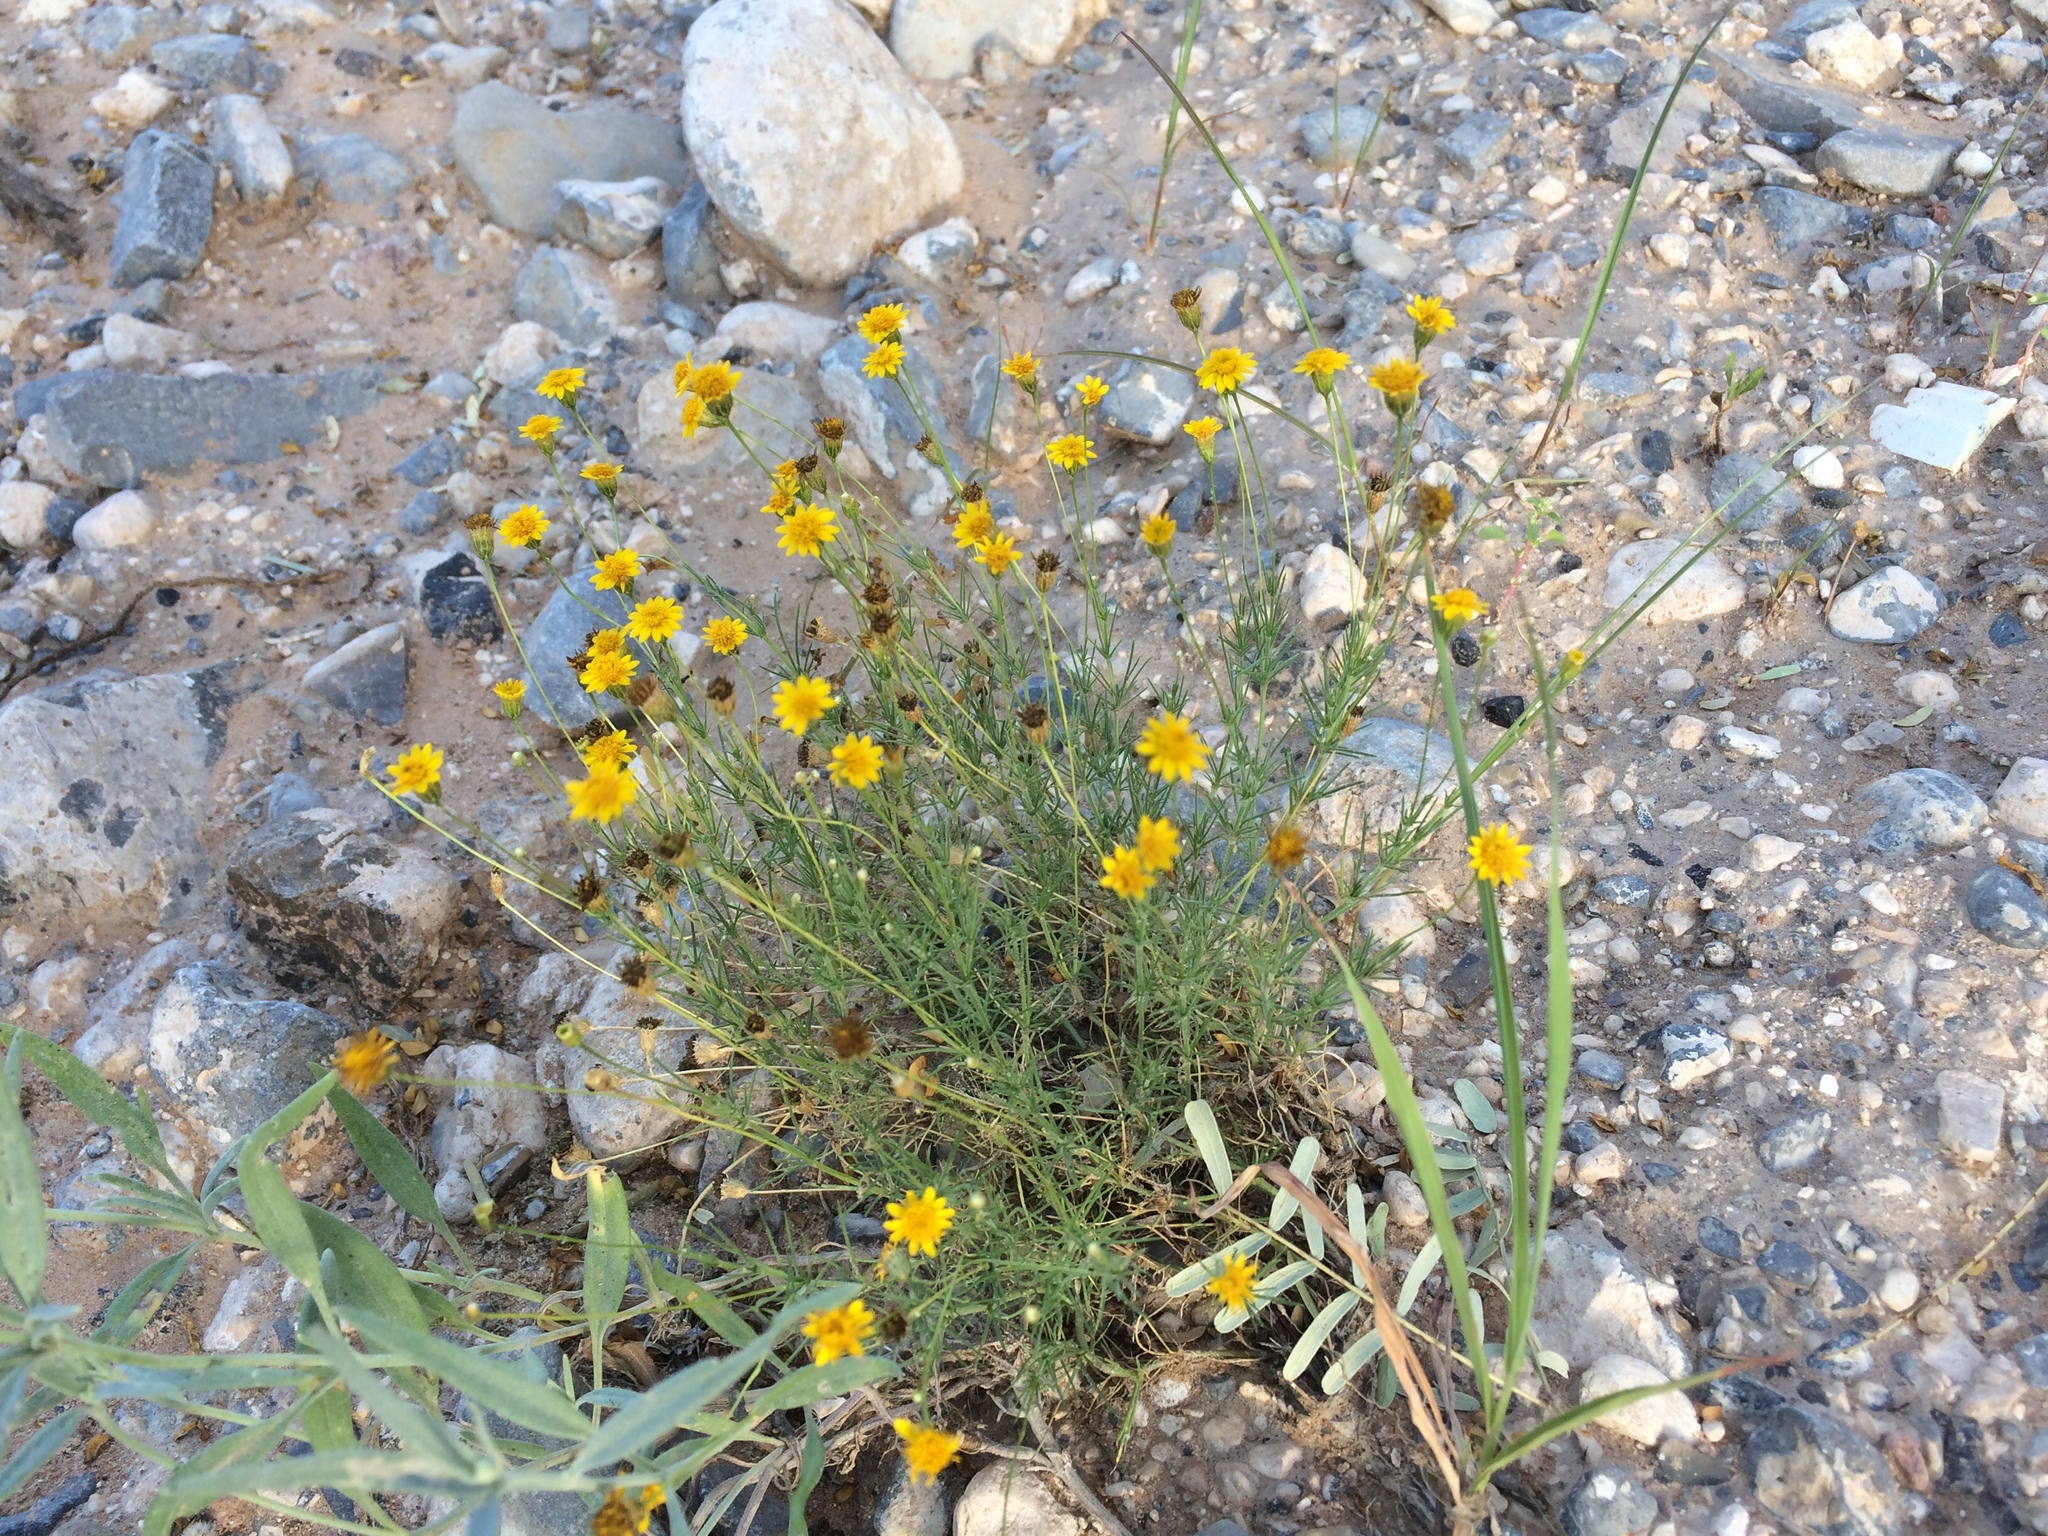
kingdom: Plantae
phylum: Tracheophyta
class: Magnoliopsida
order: Asterales
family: Asteraceae
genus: Thymophylla
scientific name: Thymophylla pentachaeta
